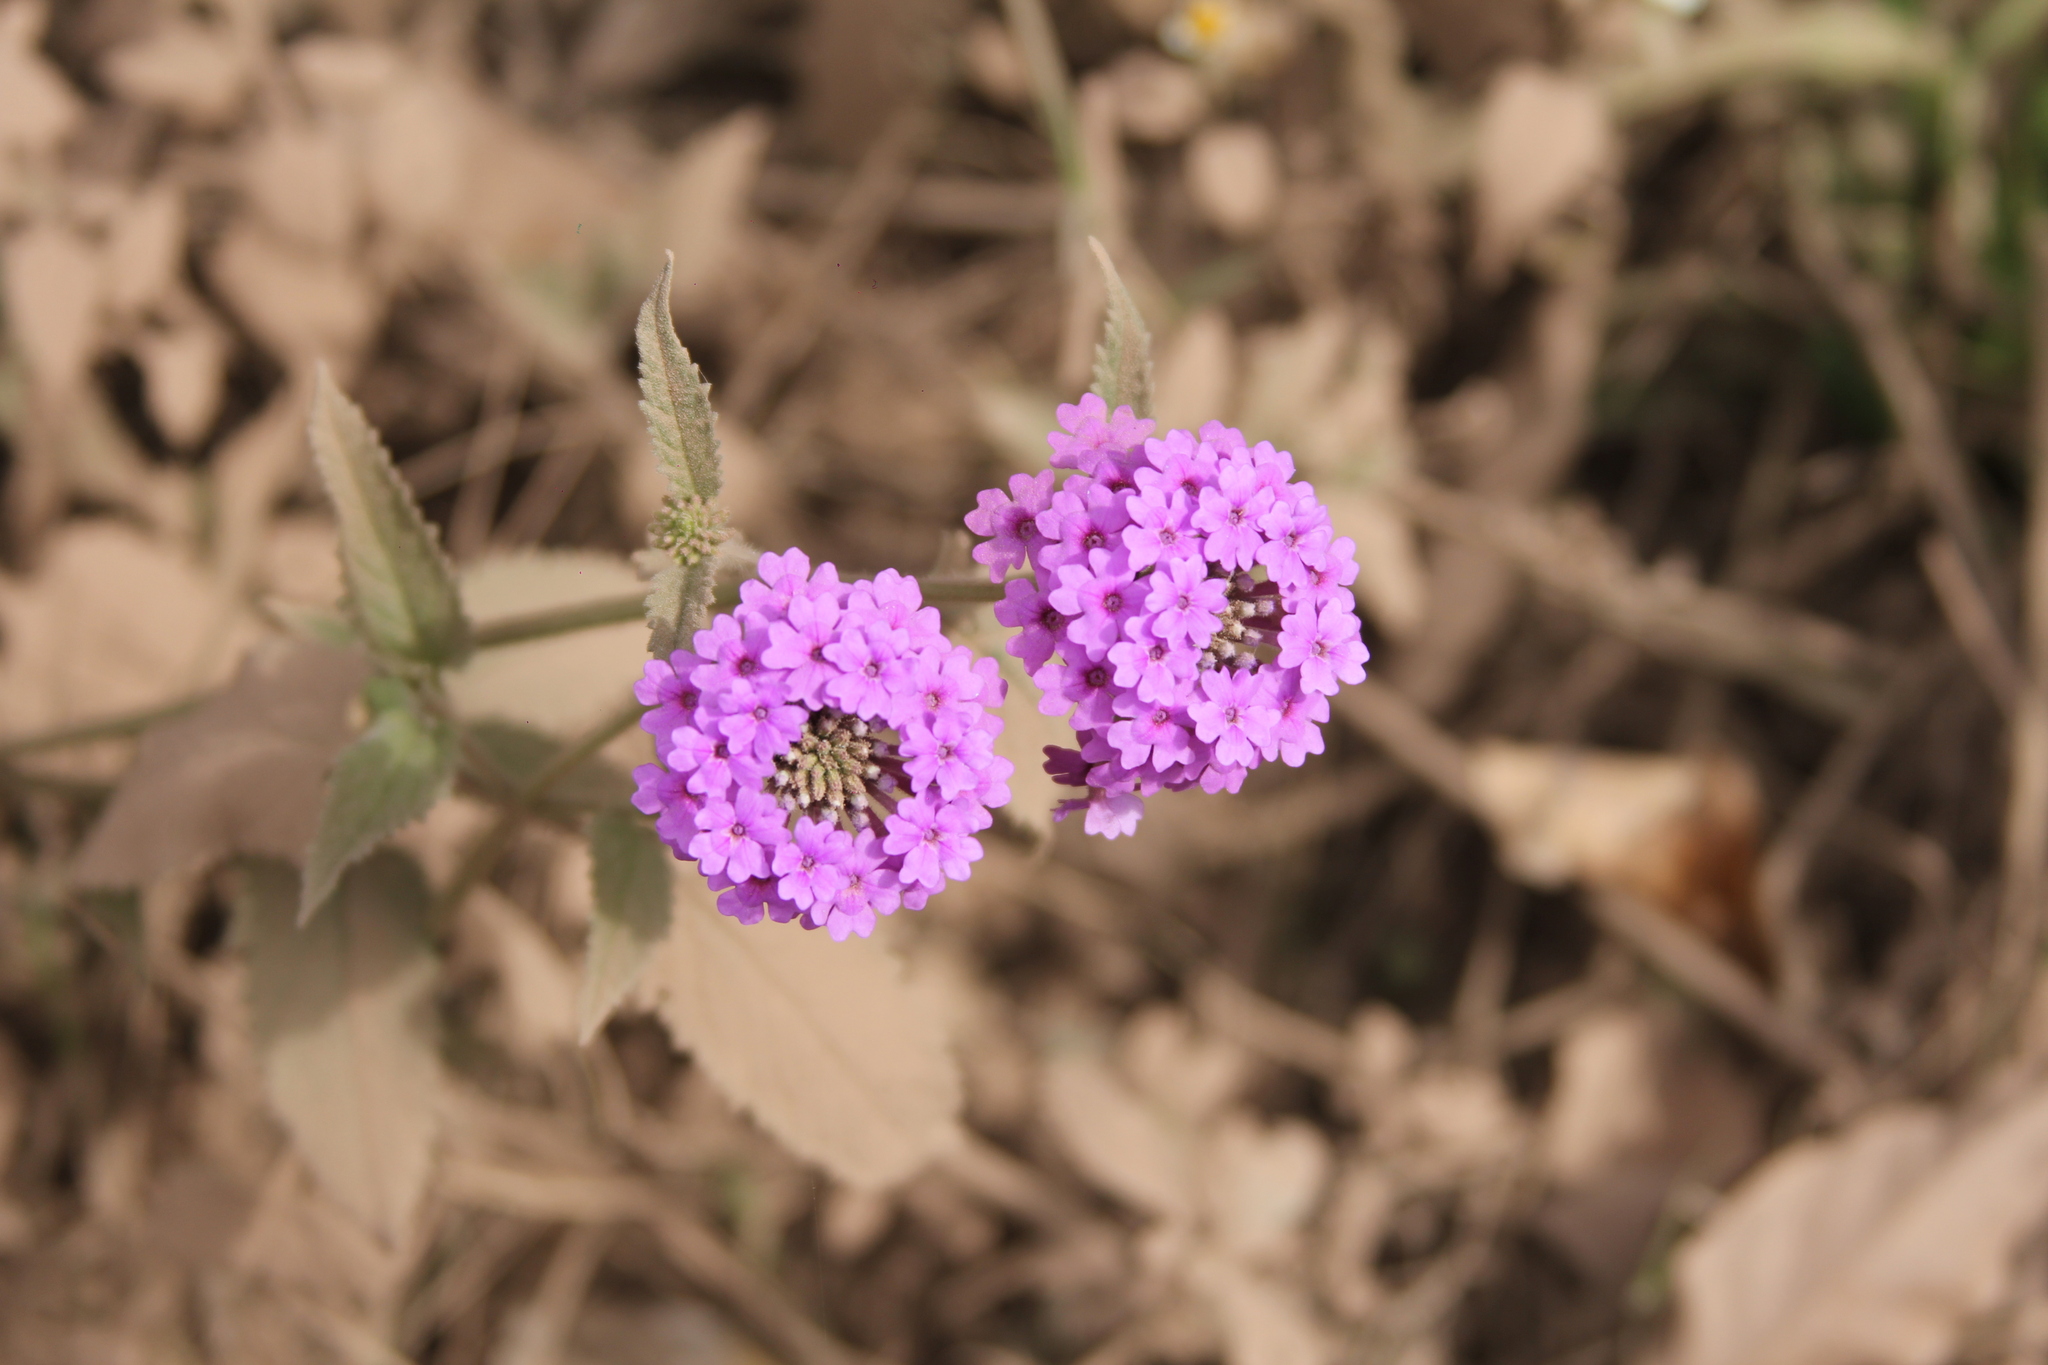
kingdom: Plantae
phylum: Tracheophyta
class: Magnoliopsida
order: Lamiales
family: Verbenaceae
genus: Verbena
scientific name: Verbena scrobiculata
